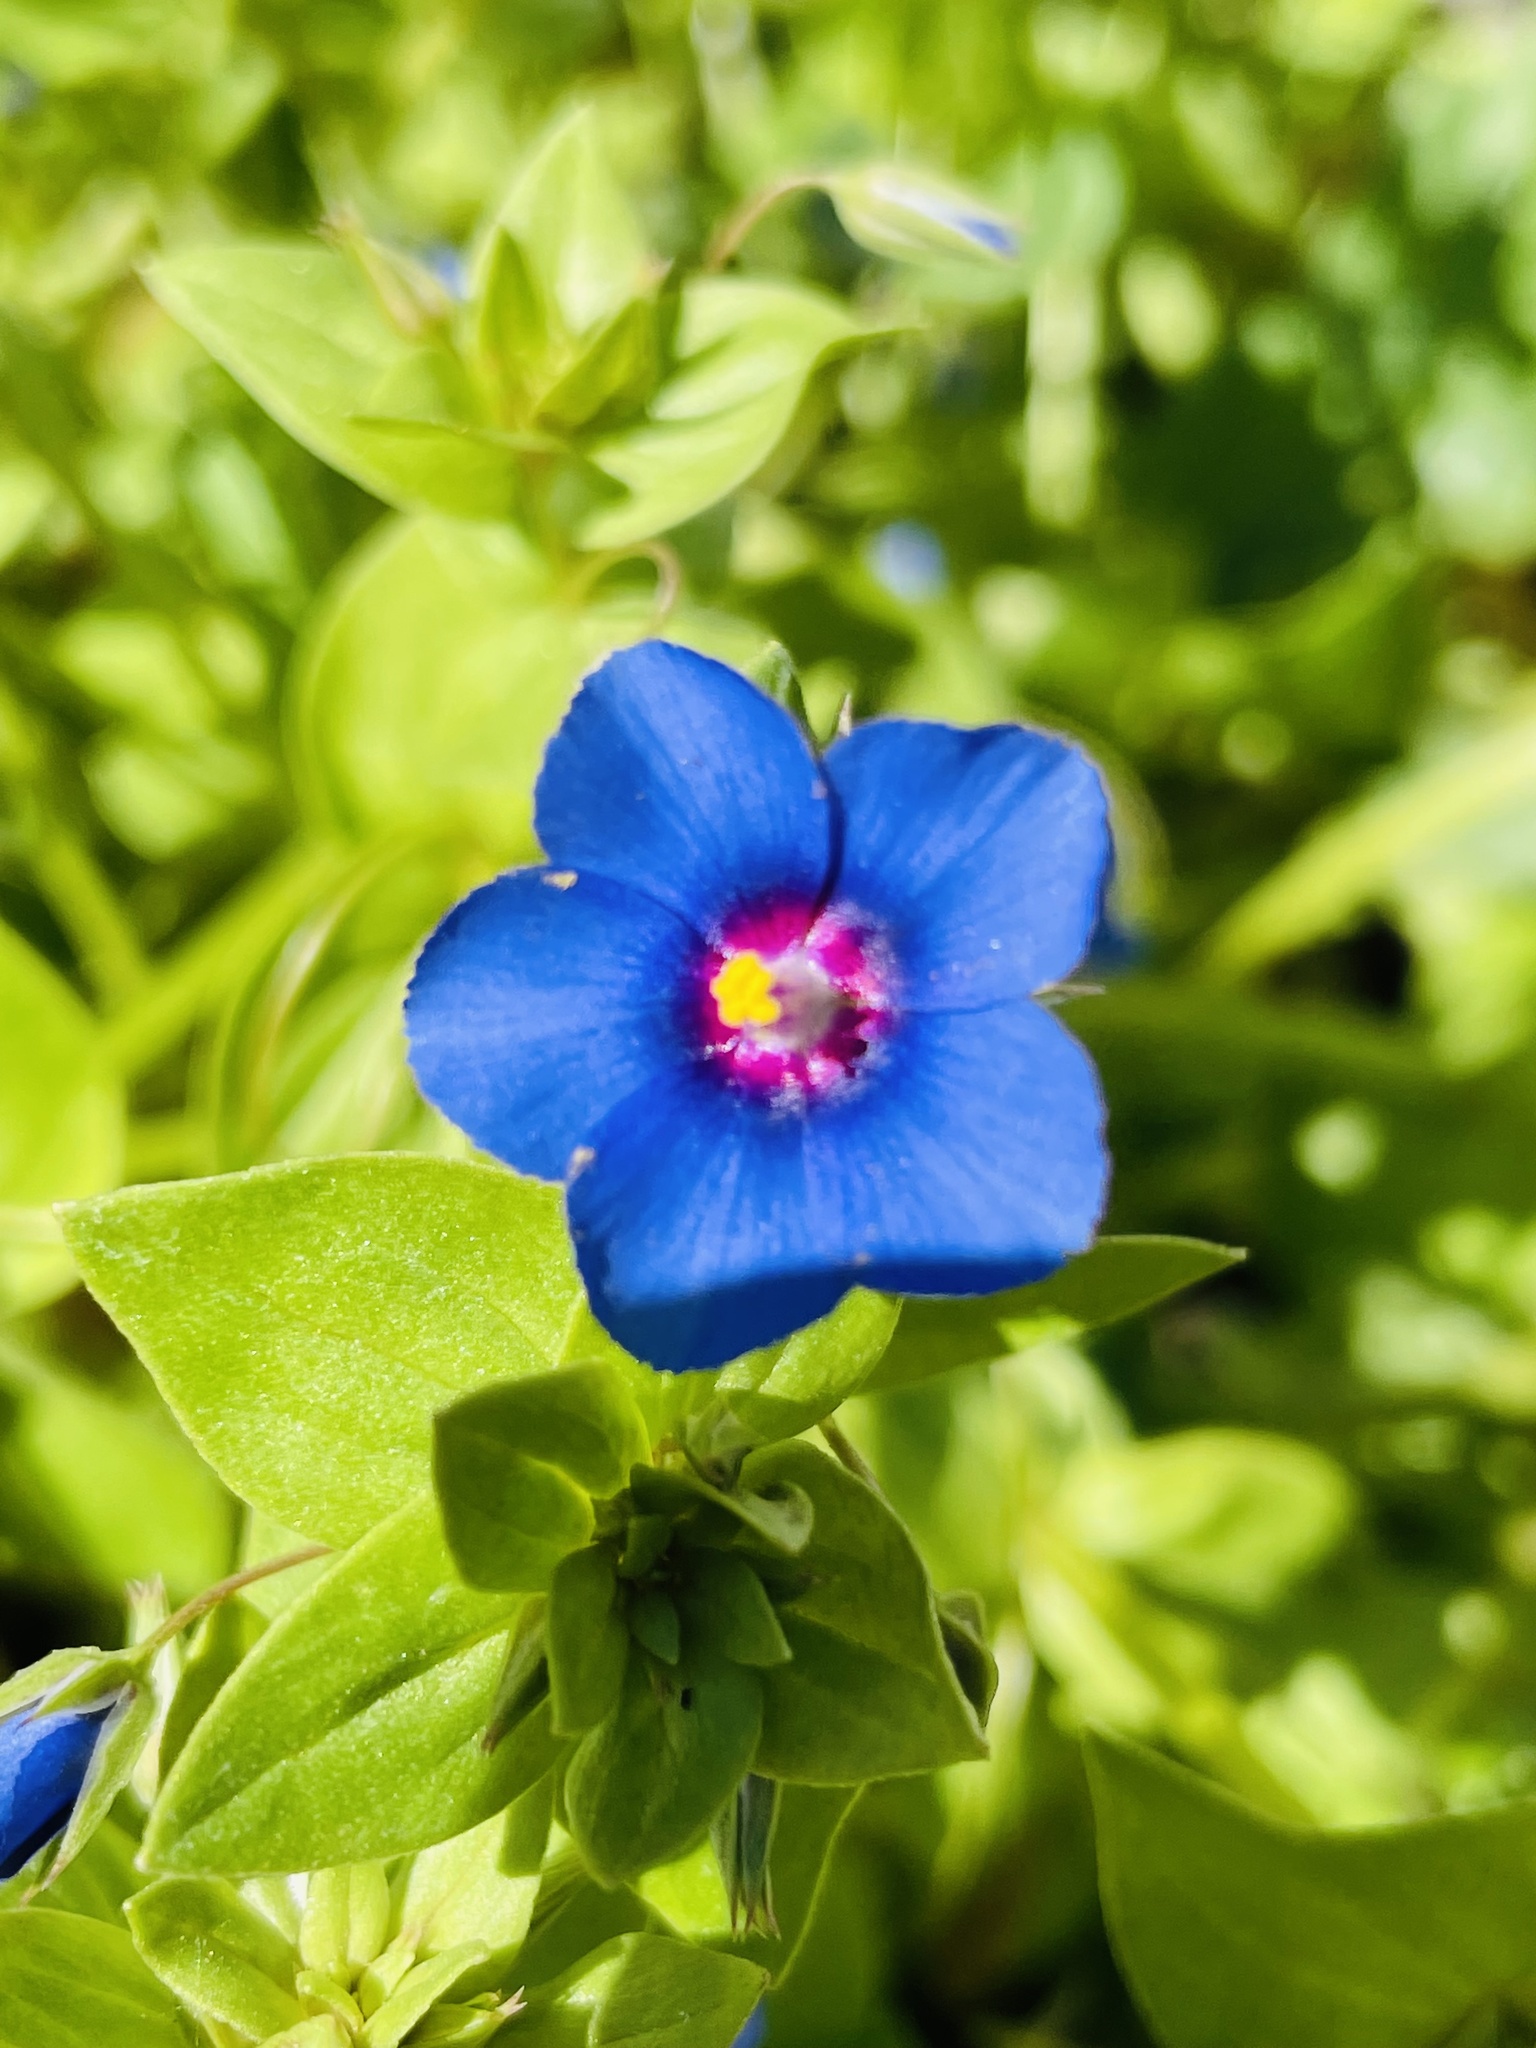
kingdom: Plantae
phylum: Tracheophyta
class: Magnoliopsida
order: Ericales
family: Primulaceae
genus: Lysimachia
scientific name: Lysimachia arvensis
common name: Scarlet pimpernel
